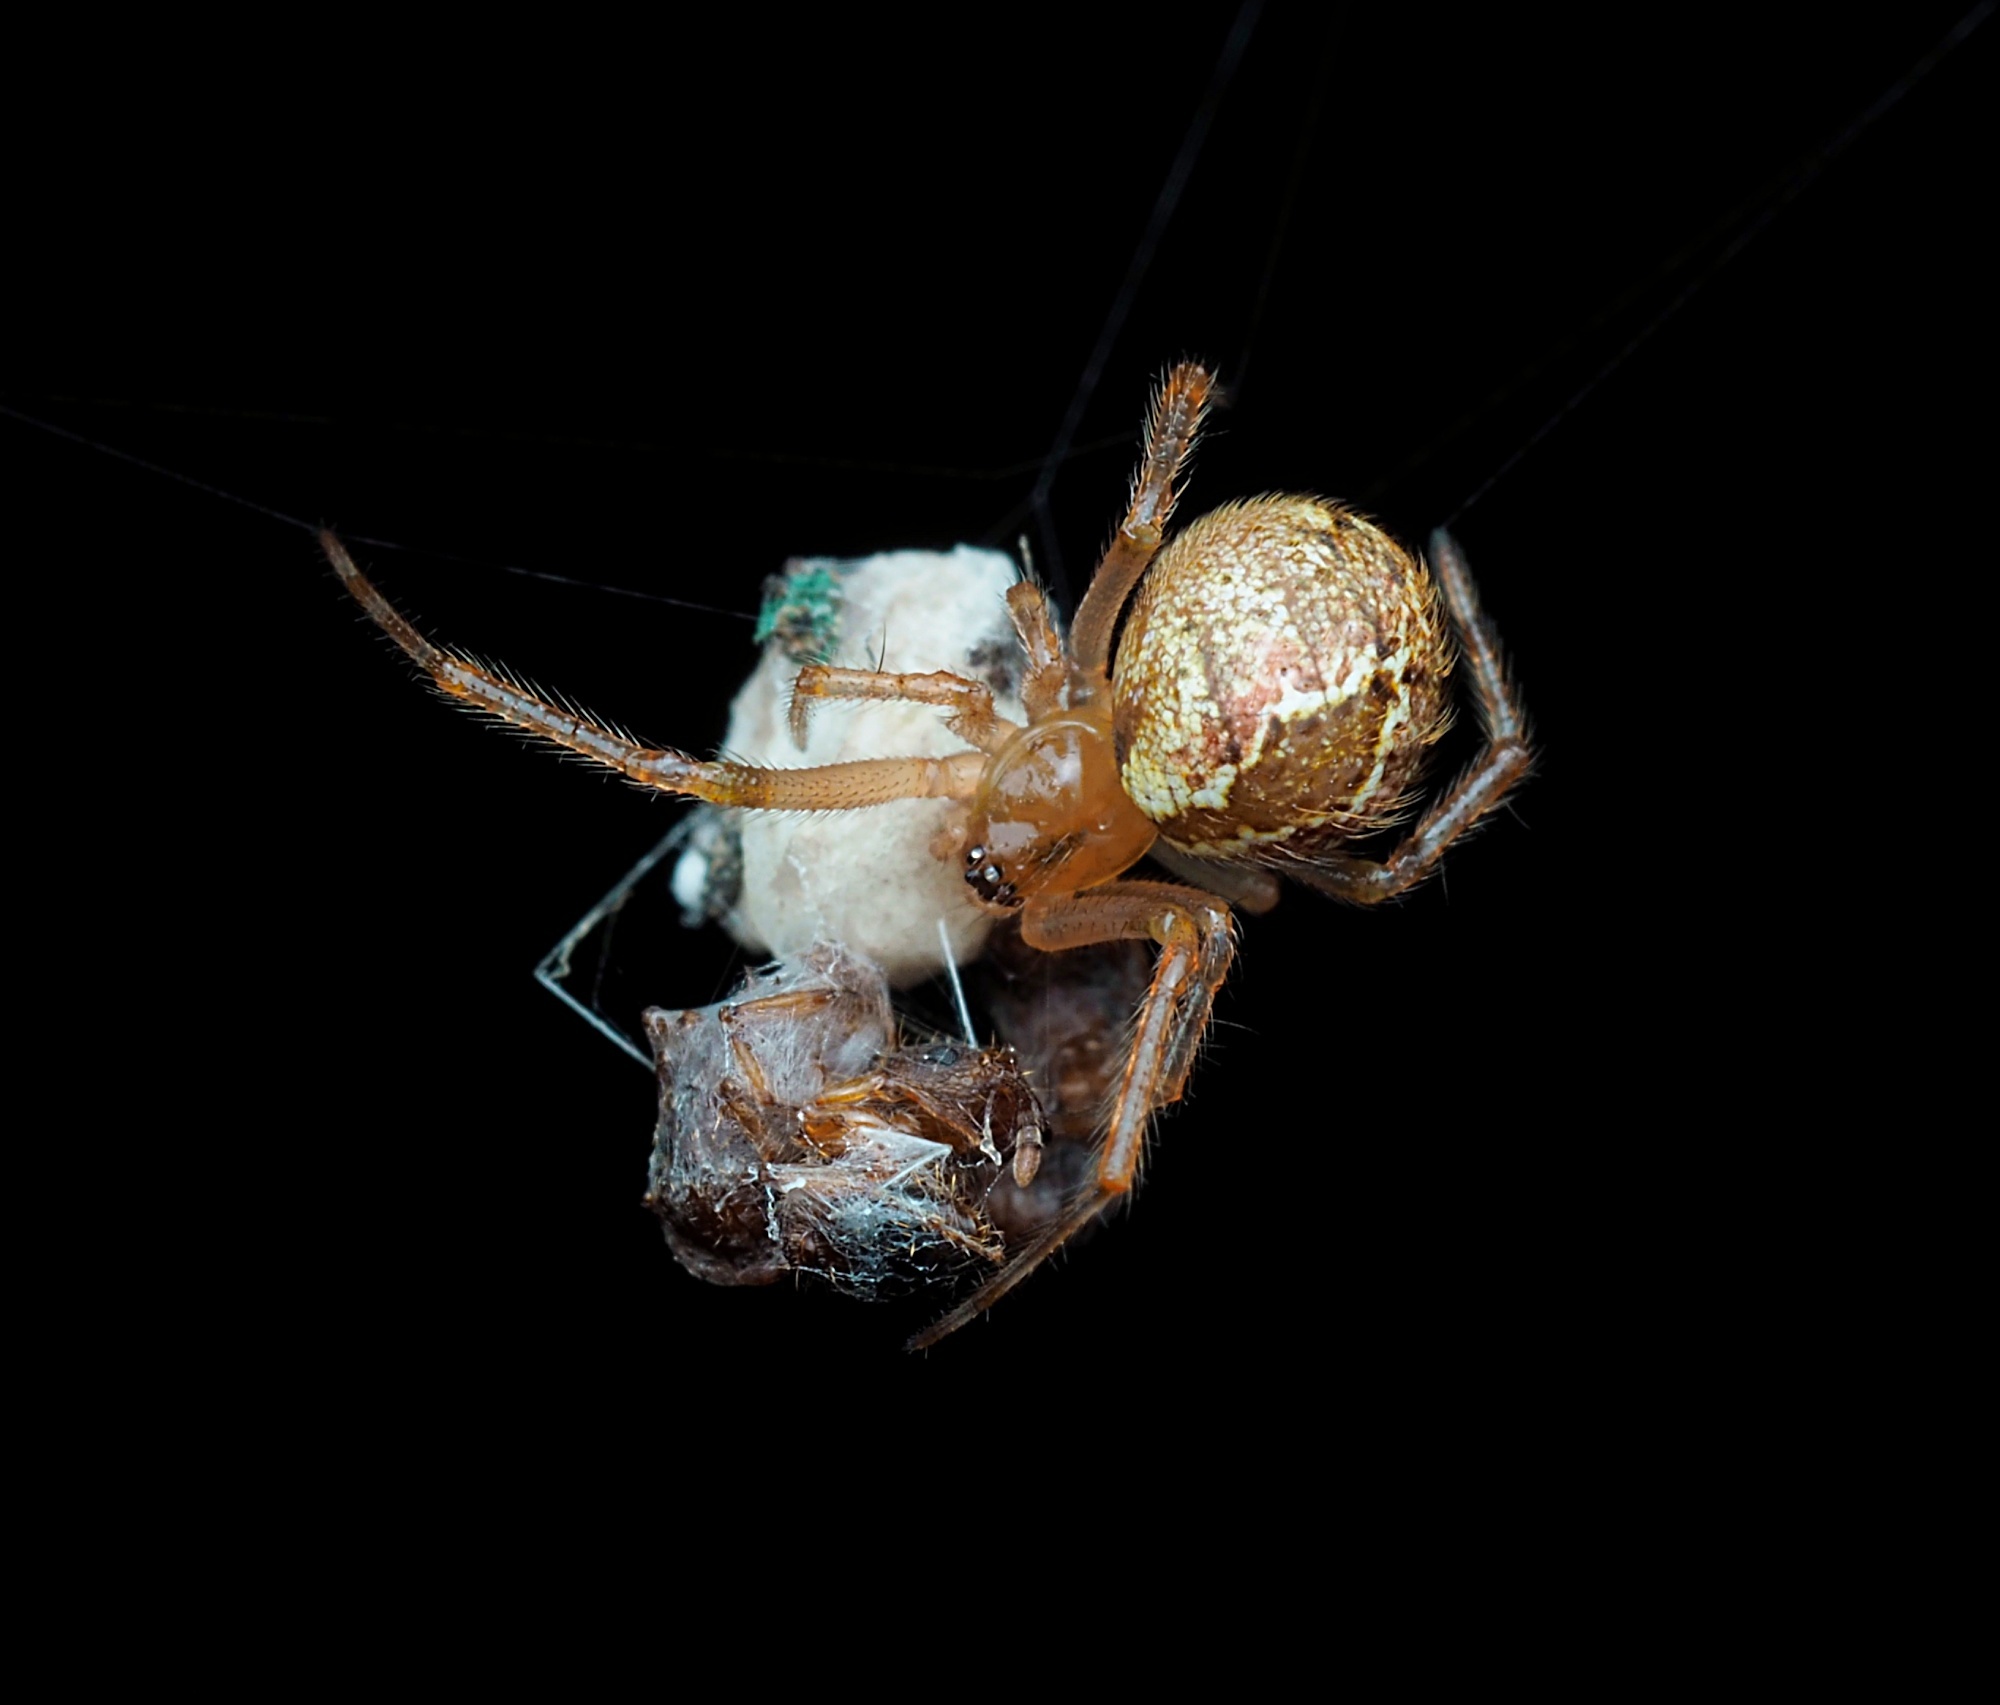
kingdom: Animalia
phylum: Arthropoda
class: Arachnida
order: Araneae
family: Theridiidae
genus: Cryptachaea
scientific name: Cryptachaea veruculata
